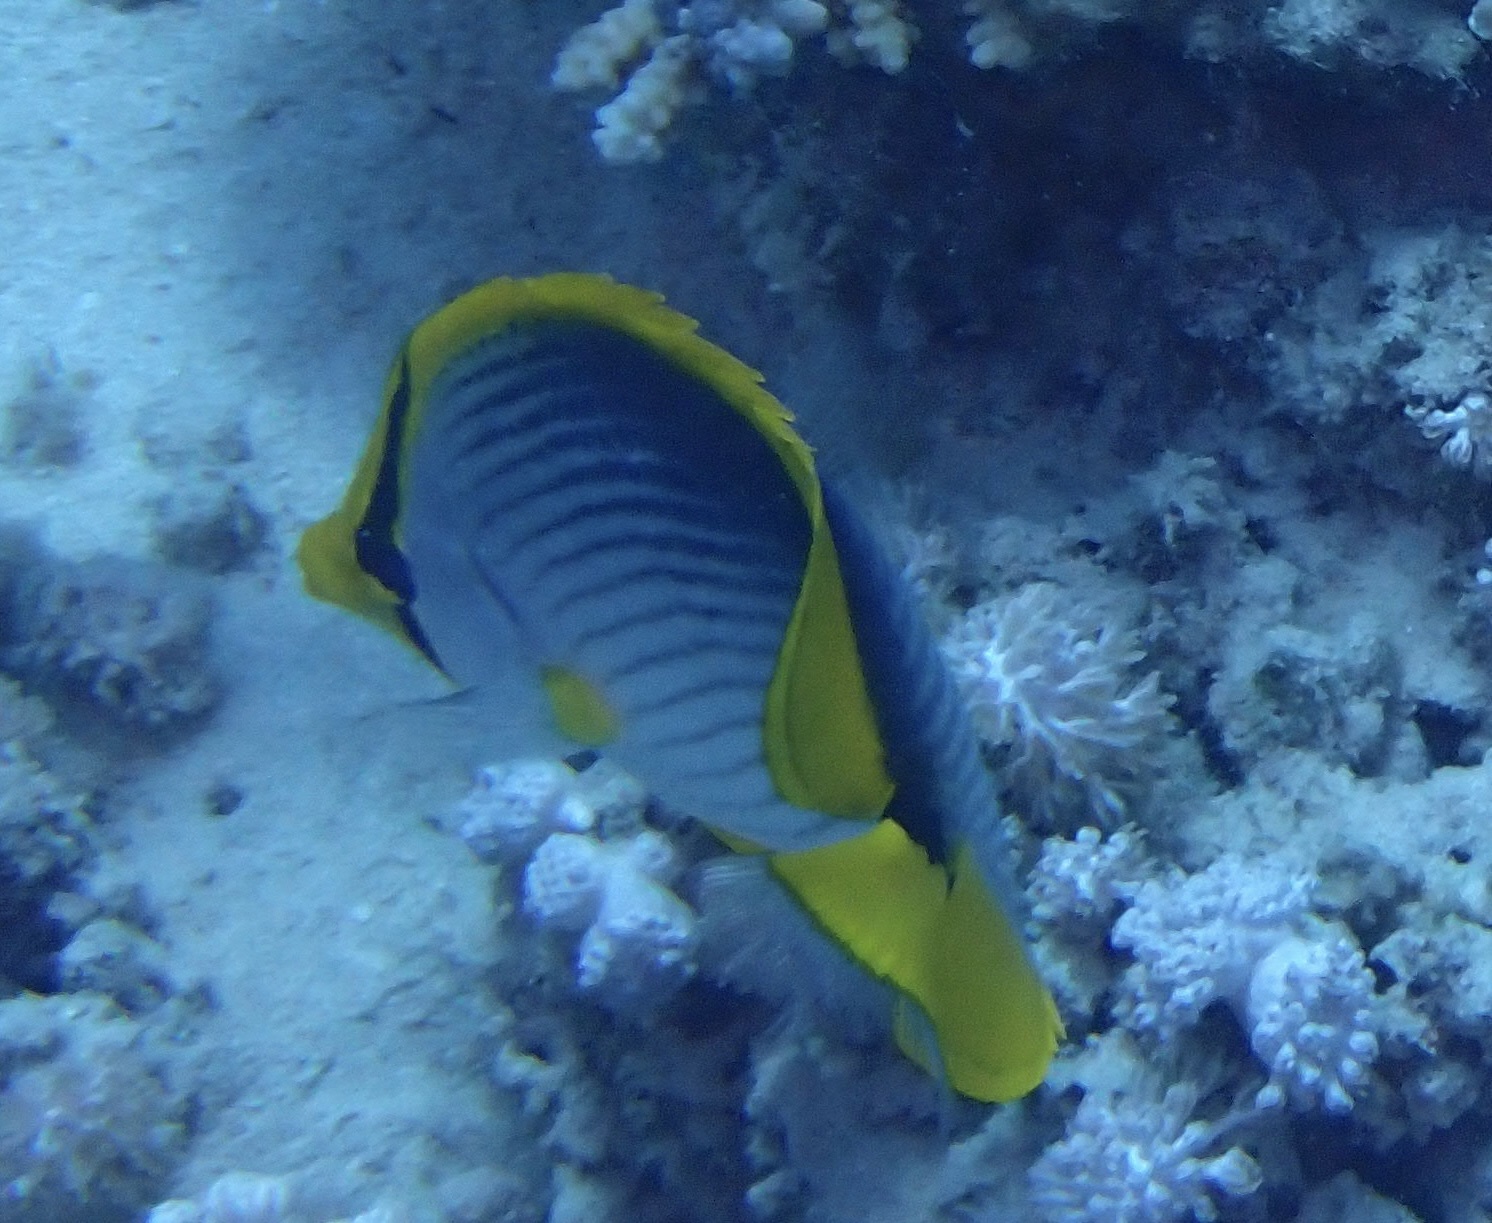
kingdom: Animalia
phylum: Chordata
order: Perciformes
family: Chaetodontidae
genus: Chaetodon
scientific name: Chaetodon melannotus
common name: Blackback butterflyfish
